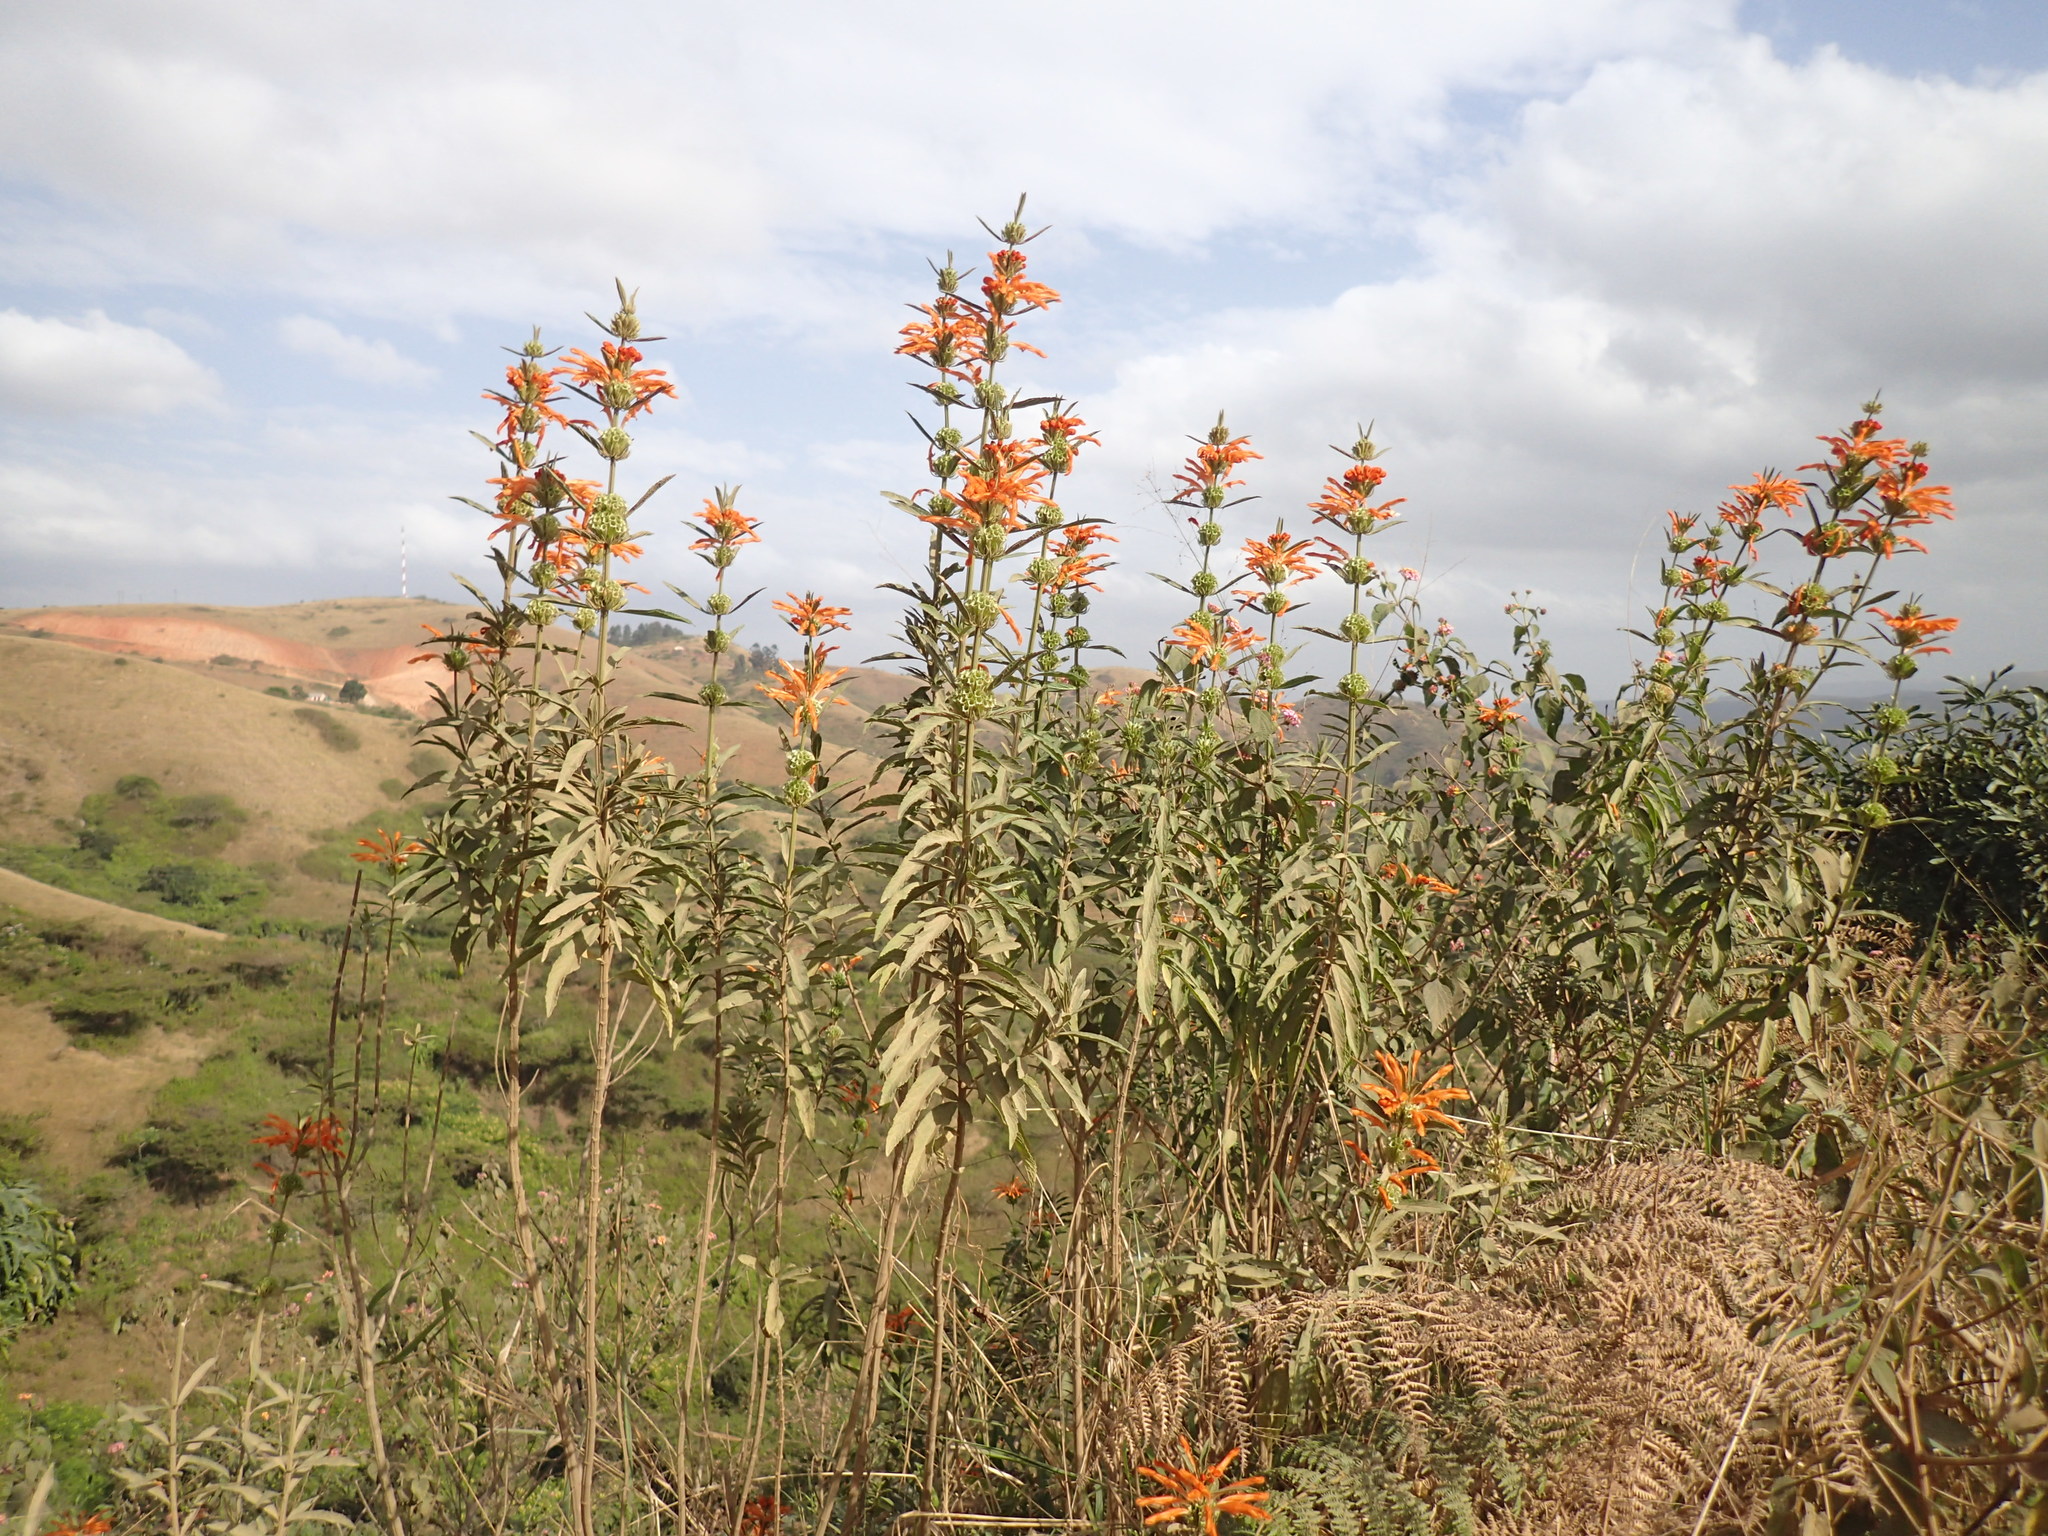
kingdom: Plantae
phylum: Tracheophyta
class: Magnoliopsida
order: Lamiales
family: Lamiaceae
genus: Leonotis
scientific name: Leonotis leonurus
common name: Lion's ear
